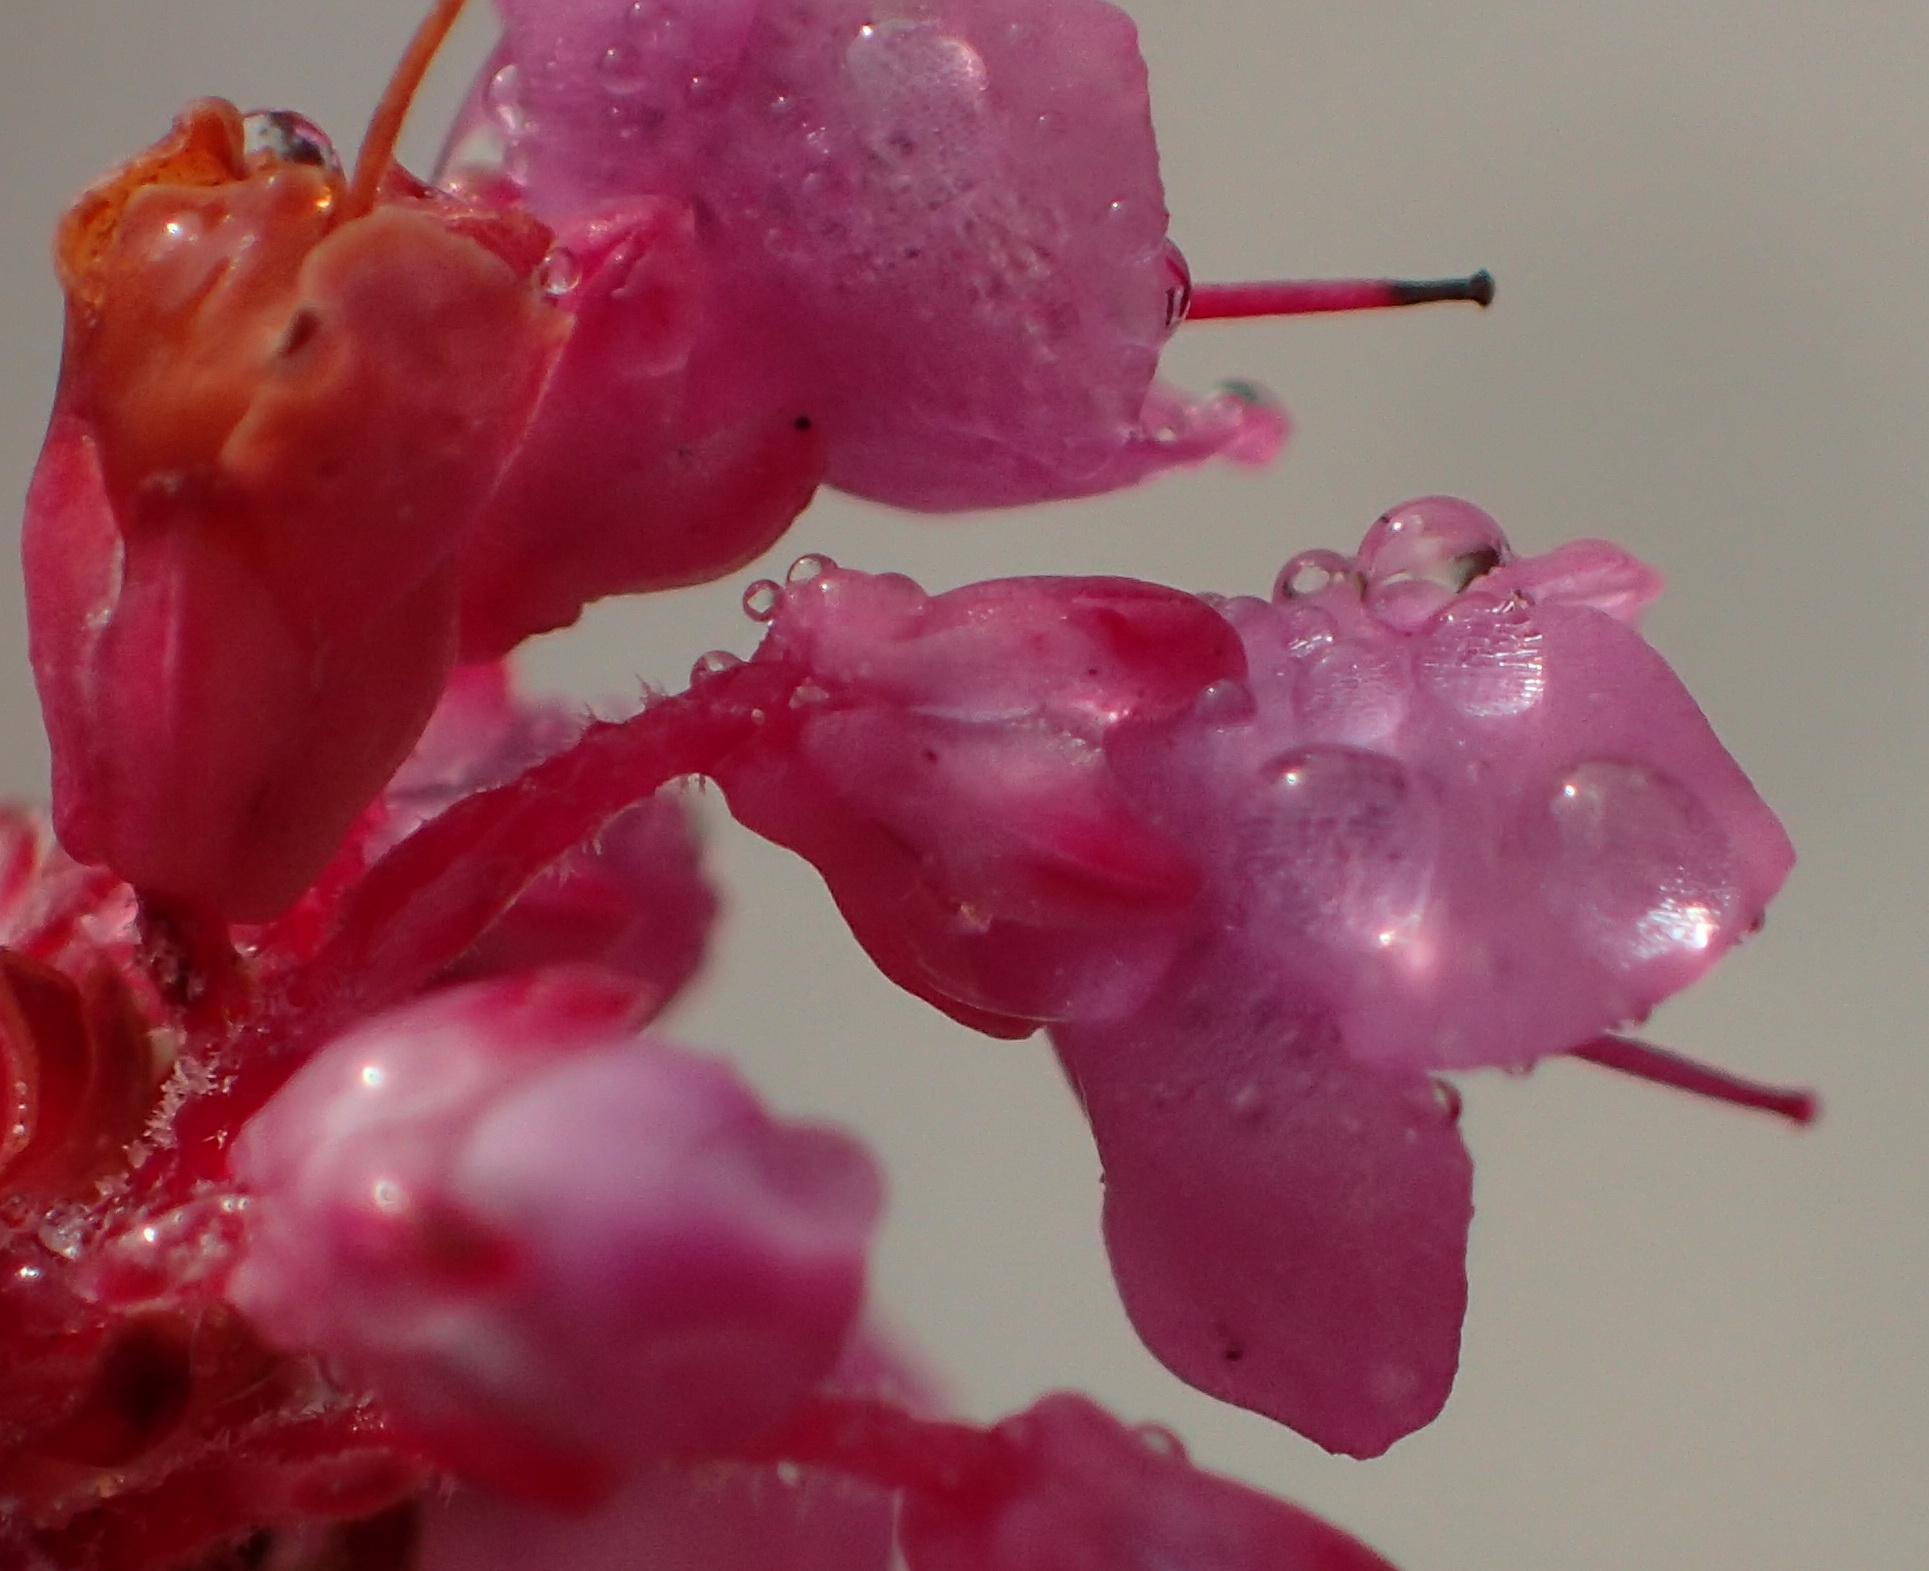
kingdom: Plantae
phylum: Tracheophyta
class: Magnoliopsida
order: Ericales
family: Ericaceae
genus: Erica
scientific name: Erica seriphiifolia
